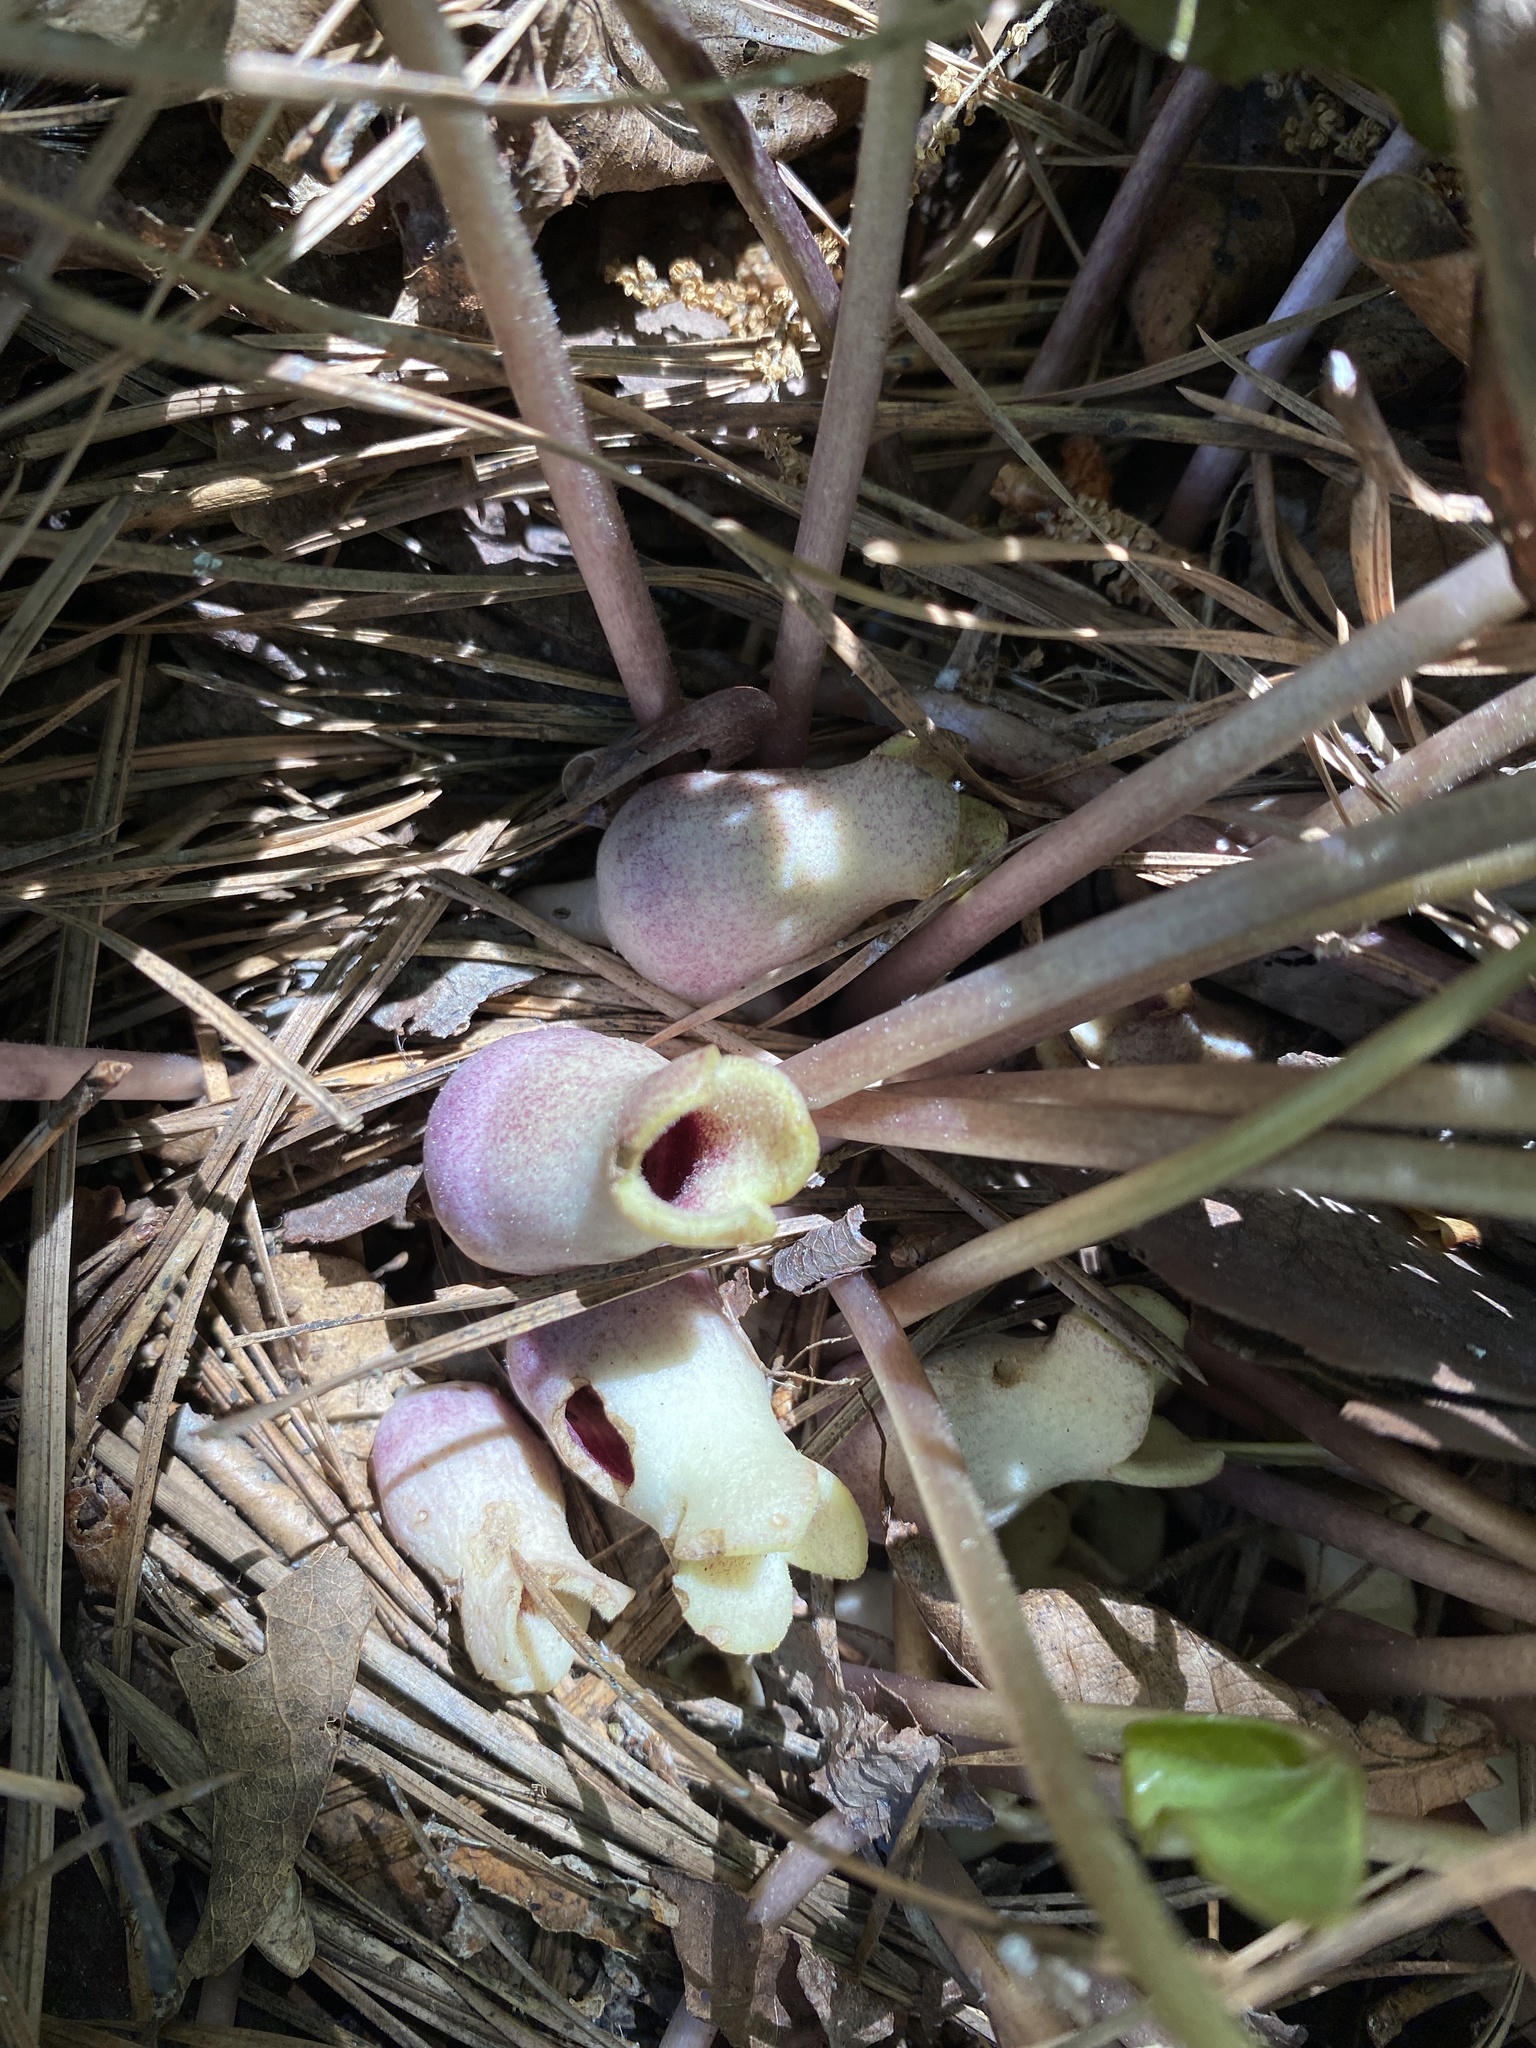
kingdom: Plantae
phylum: Tracheophyta
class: Magnoliopsida
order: Piperales
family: Aristolochiaceae
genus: Hexastylis
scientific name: Hexastylis arifolia
